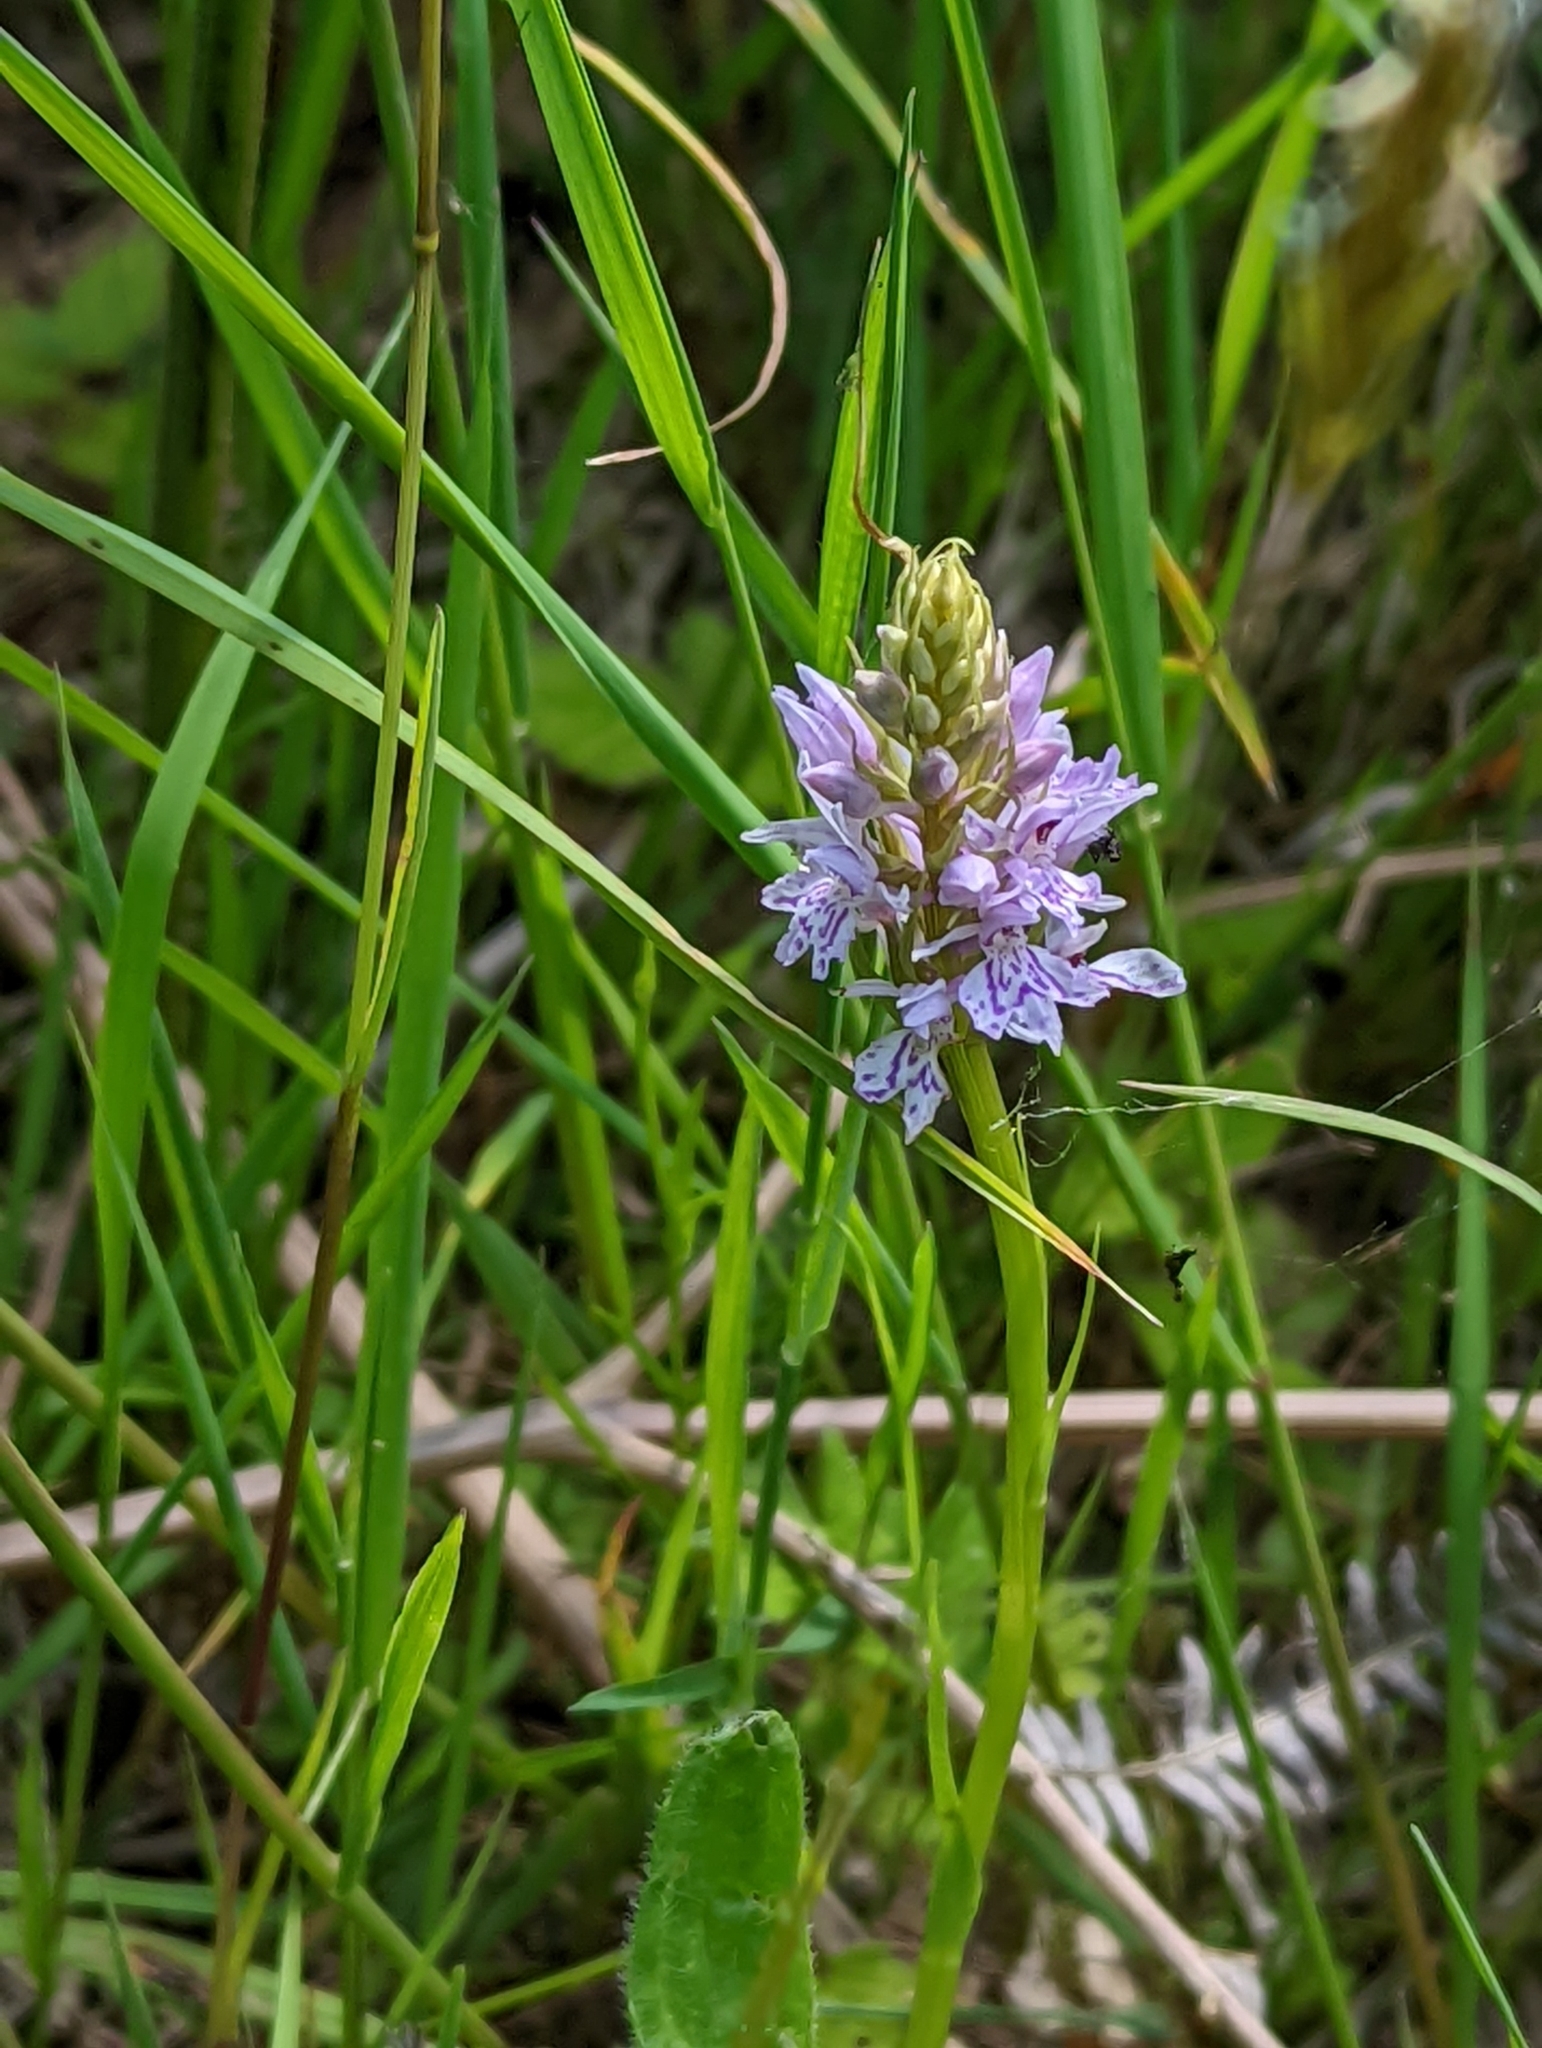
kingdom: Plantae
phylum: Tracheophyta
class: Liliopsida
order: Asparagales
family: Orchidaceae
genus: Dactylorhiza
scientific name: Dactylorhiza maculata
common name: Heath spotted-orchid
